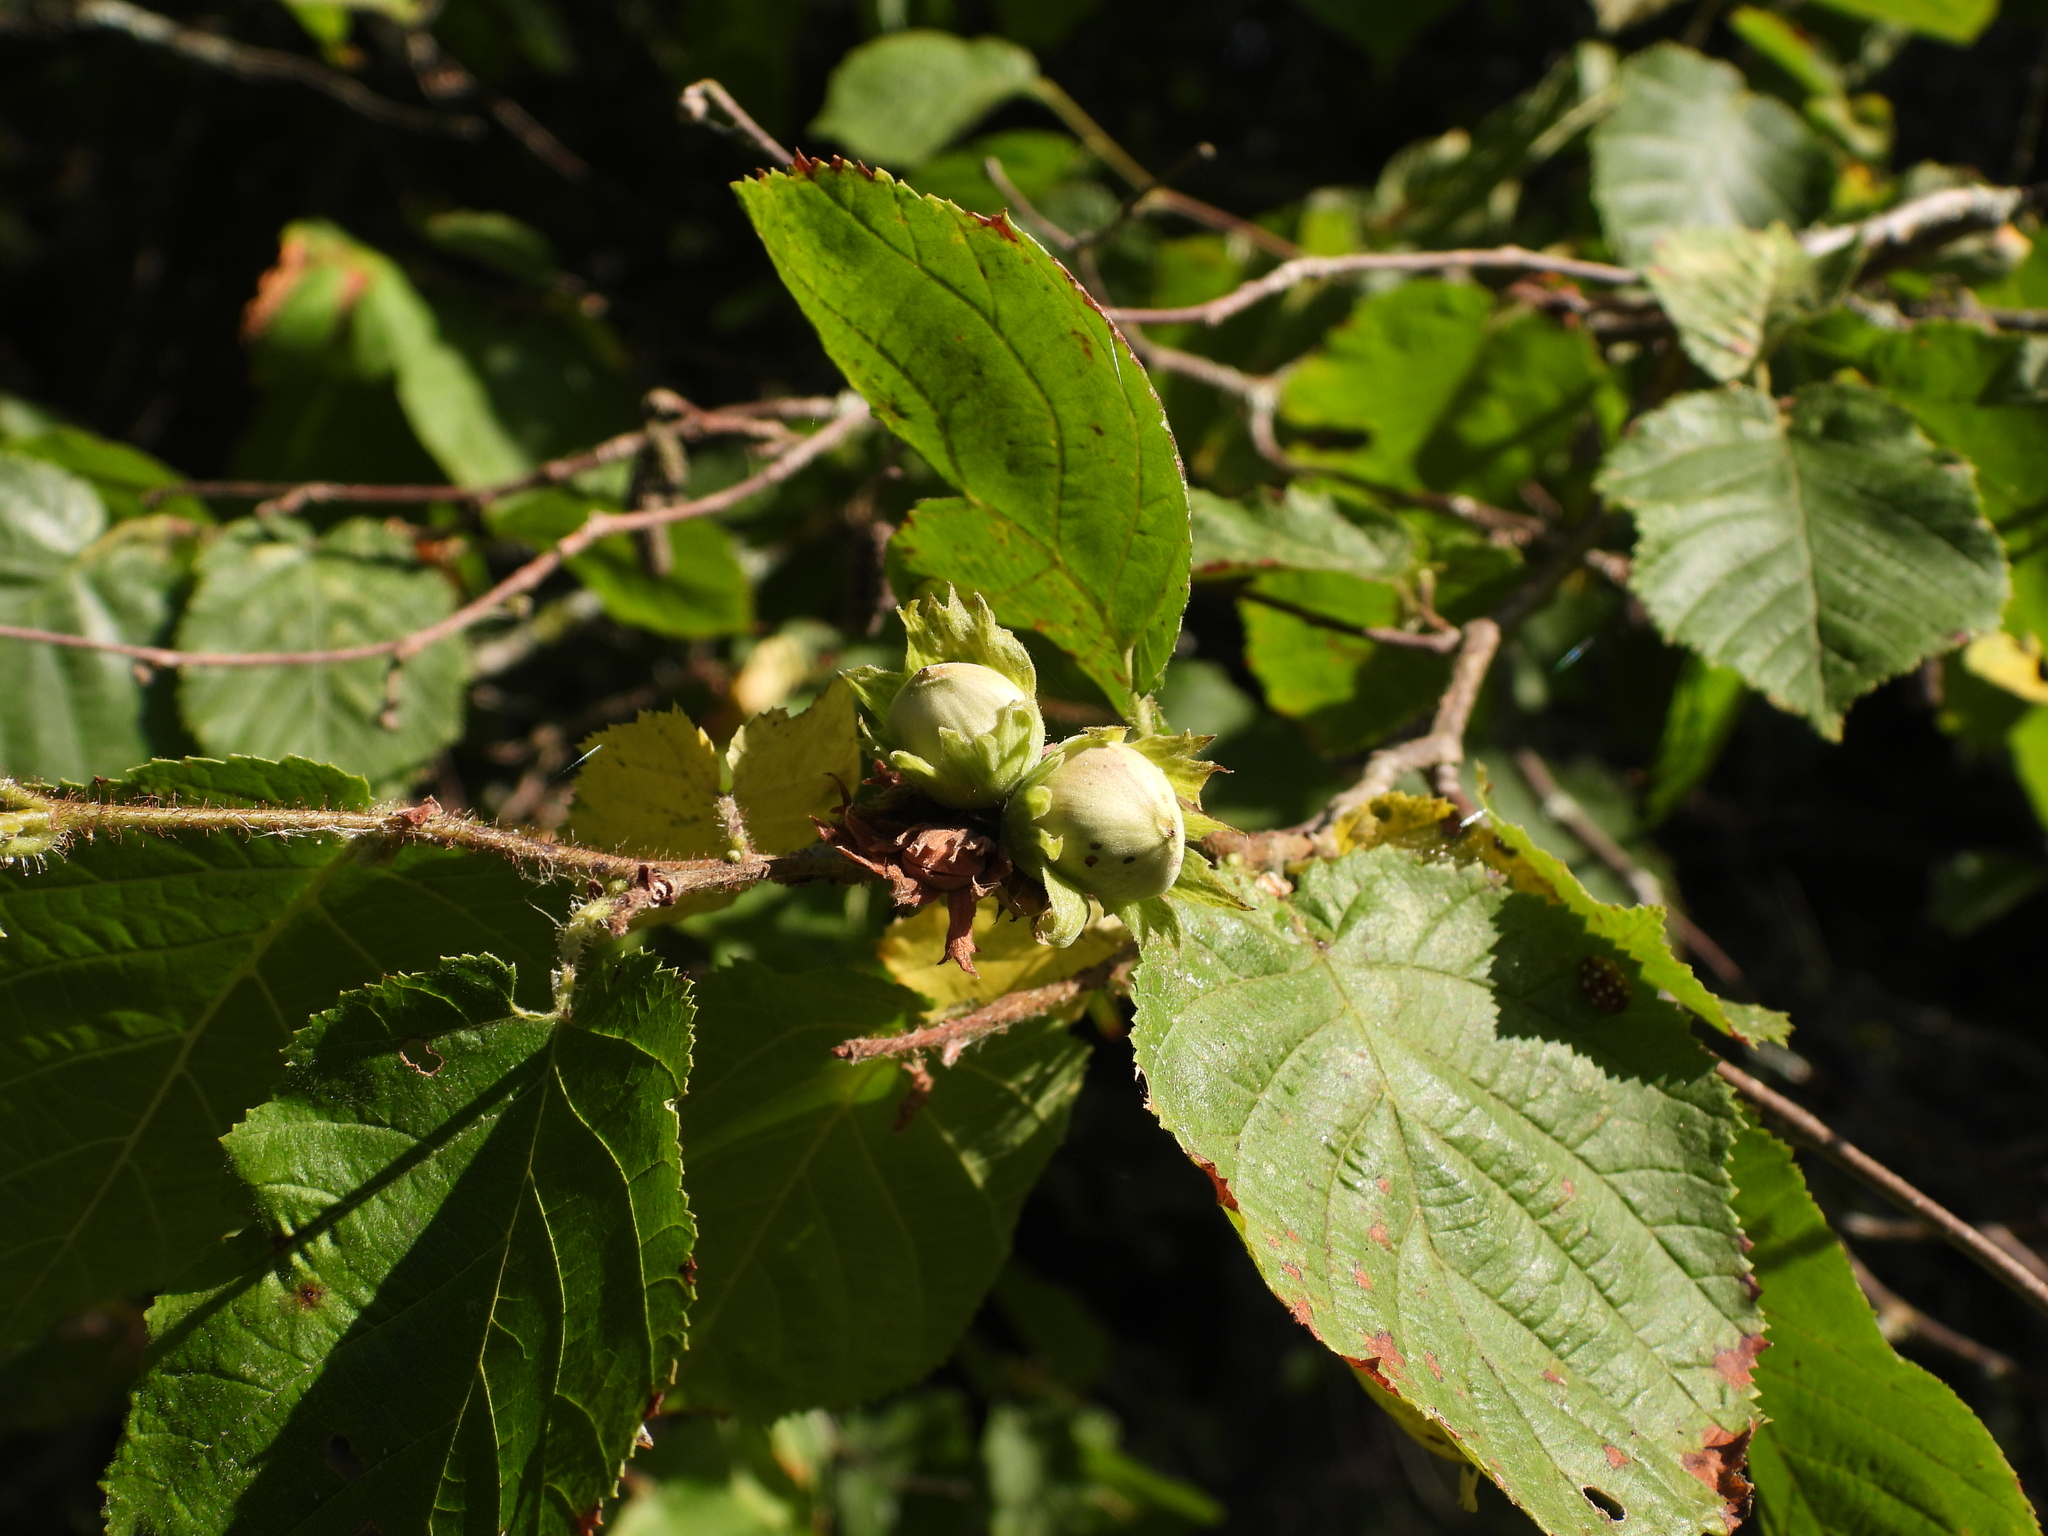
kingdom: Plantae
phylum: Tracheophyta
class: Magnoliopsida
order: Fagales
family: Betulaceae
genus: Corylus
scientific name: Corylus avellana
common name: European hazel
